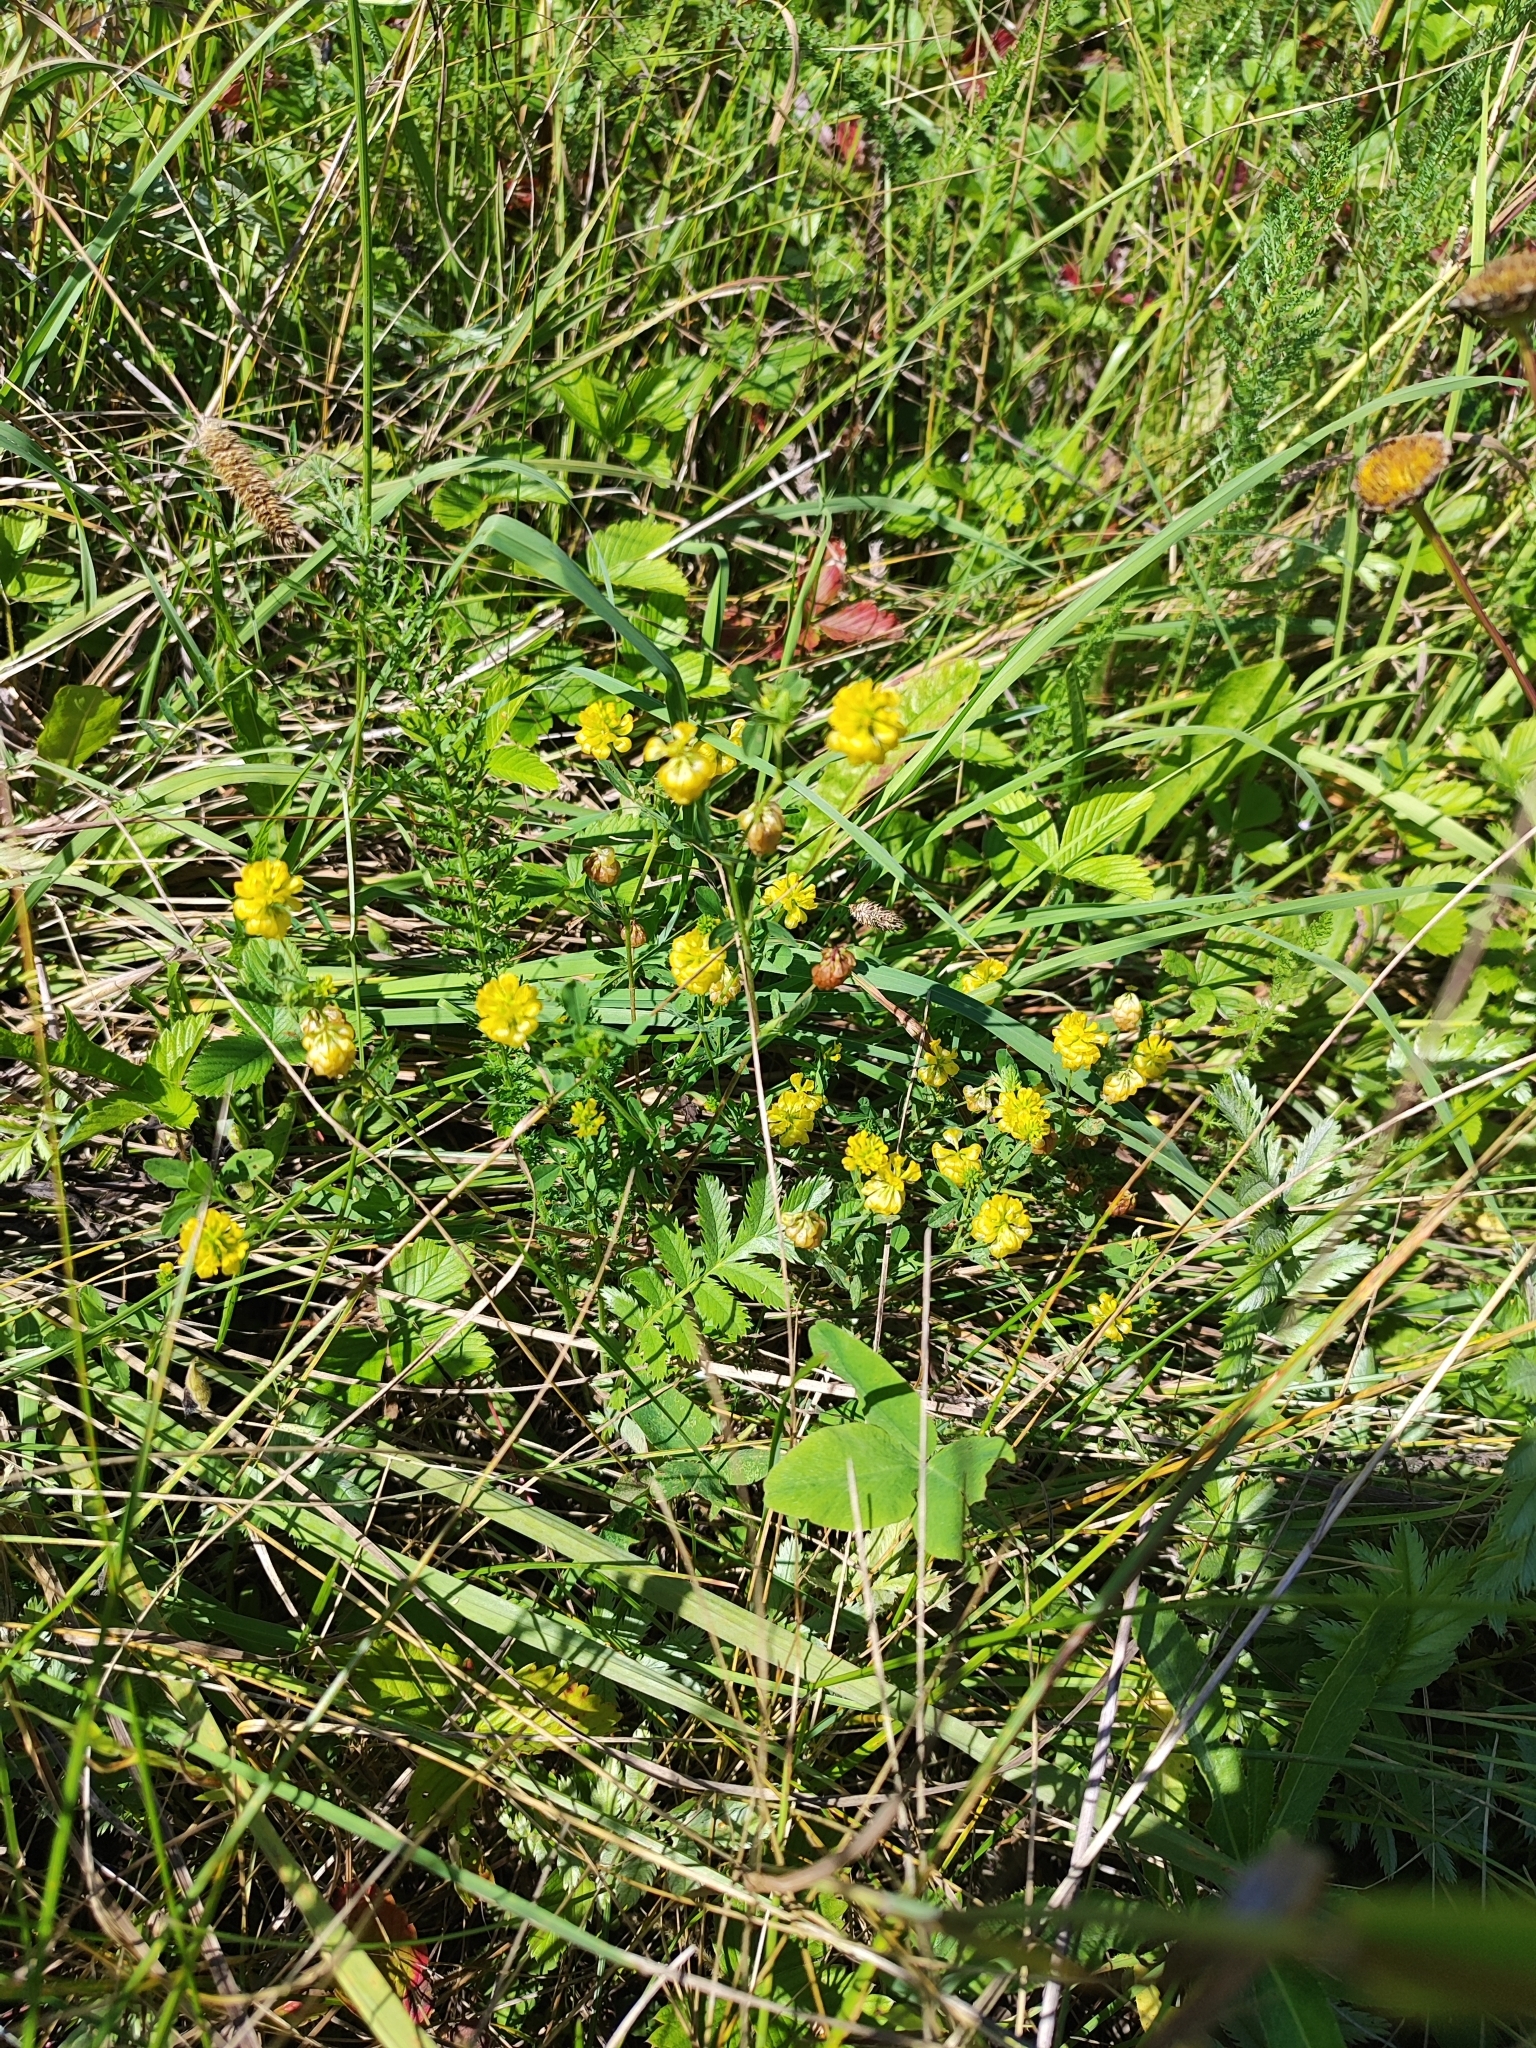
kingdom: Plantae
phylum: Tracheophyta
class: Magnoliopsida
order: Fabales
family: Fabaceae
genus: Trifolium
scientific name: Trifolium aureum
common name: Golden clover
